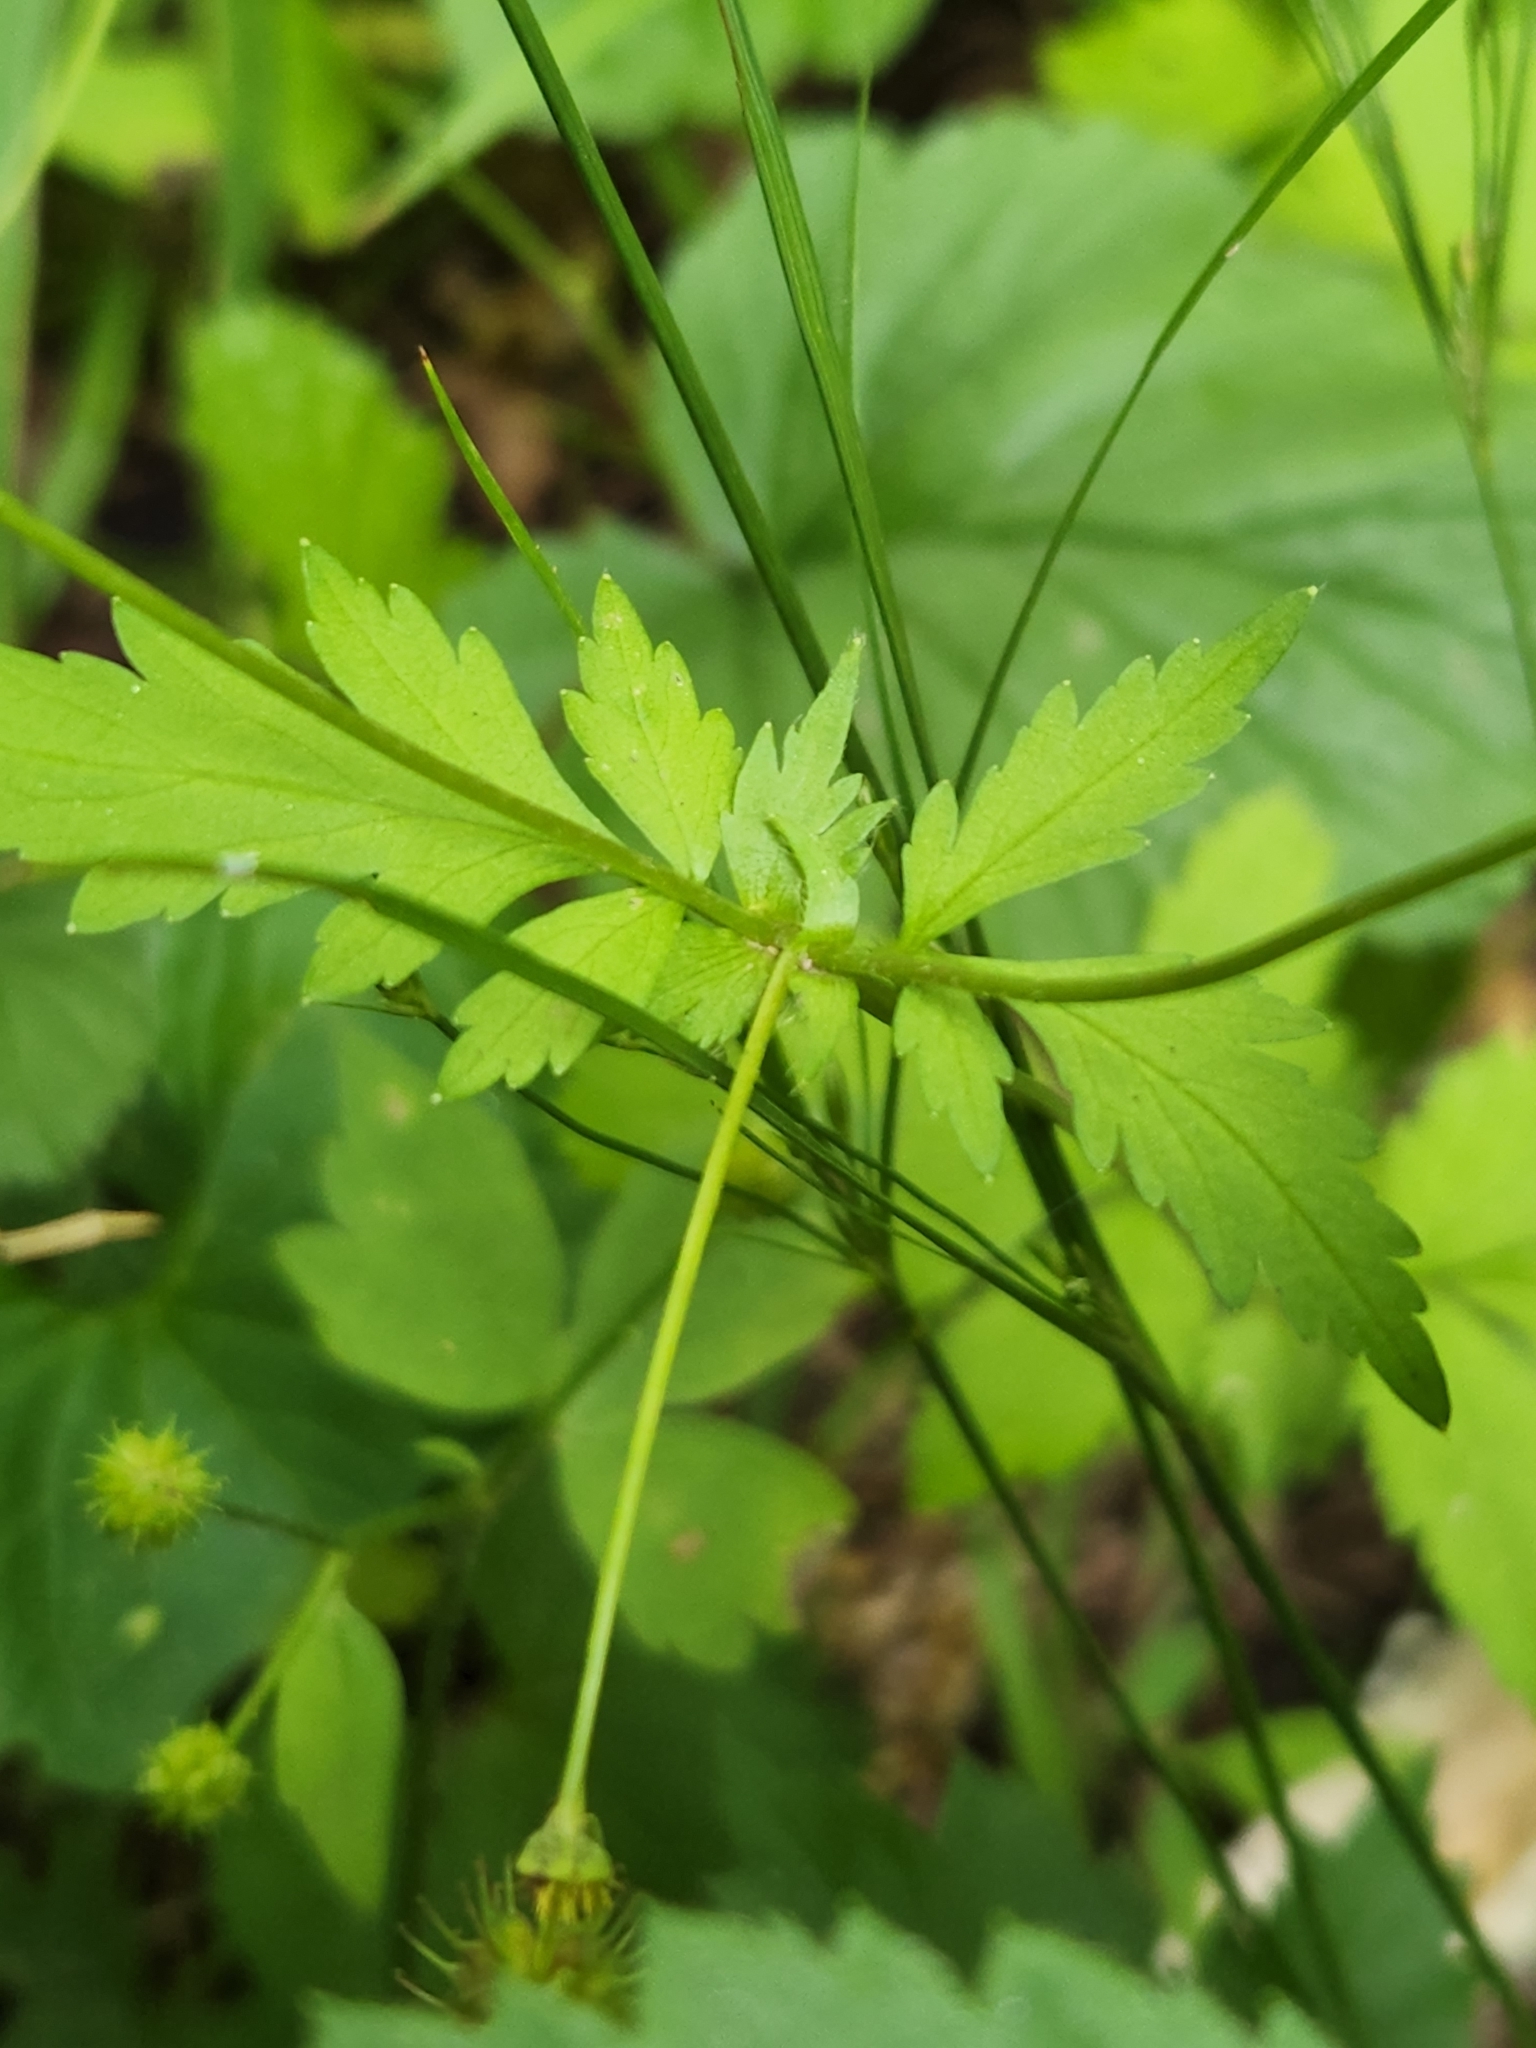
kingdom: Plantae
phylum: Tracheophyta
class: Magnoliopsida
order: Rosales
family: Rosaceae
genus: Geum
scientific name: Geum vernum
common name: Spring avens
